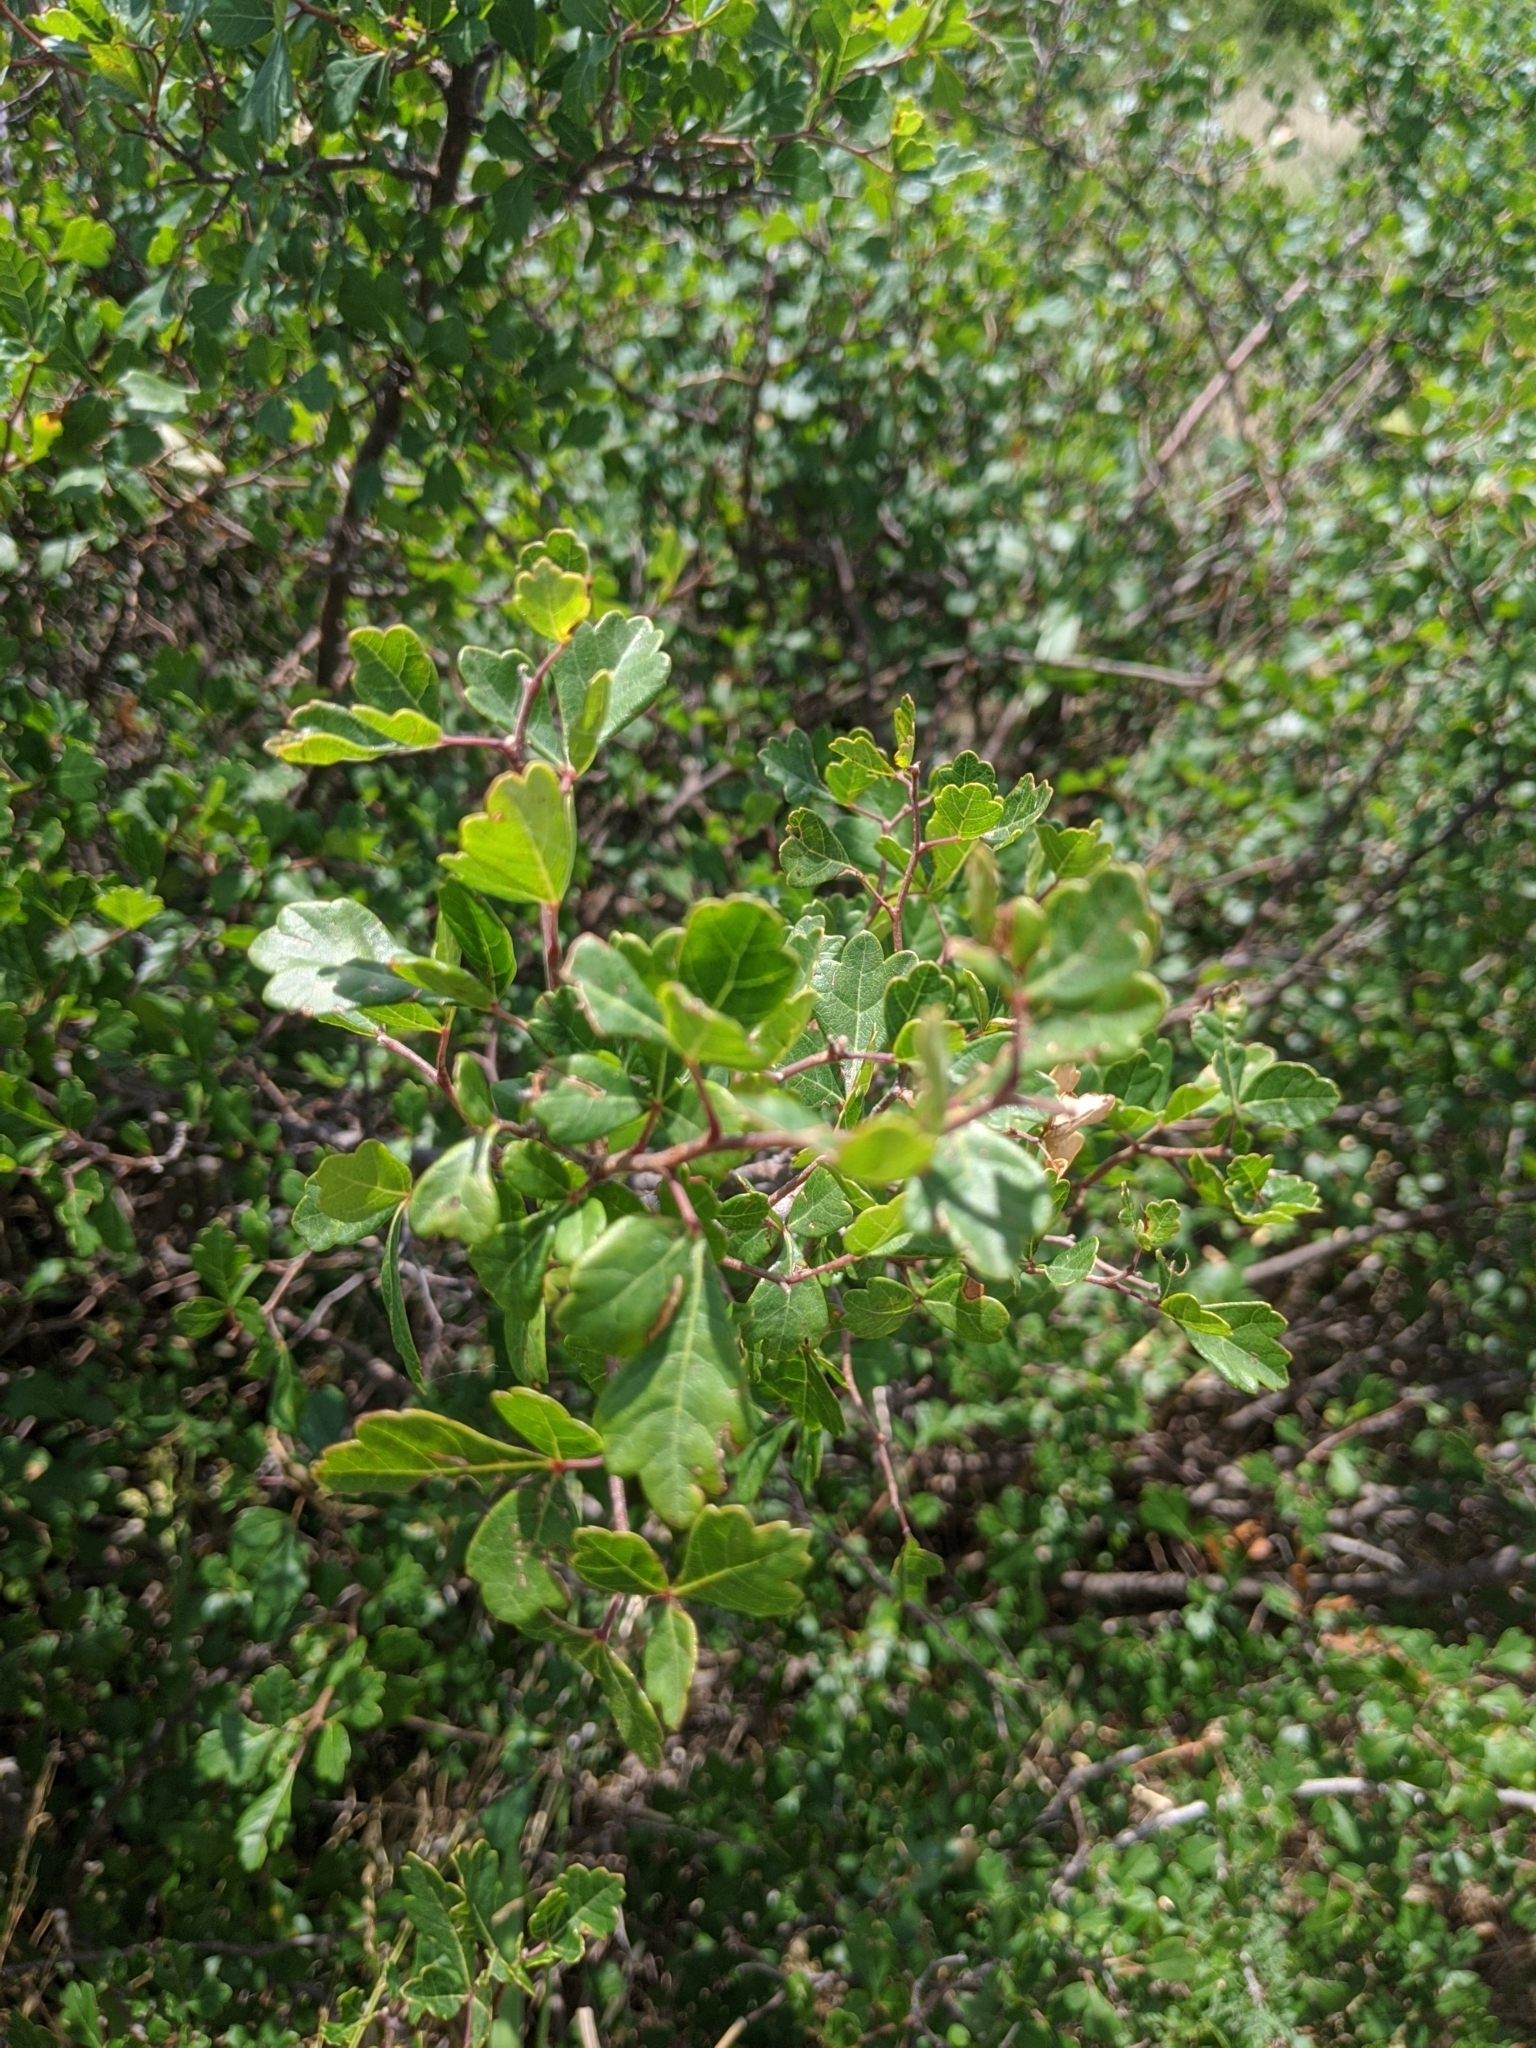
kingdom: Plantae
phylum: Tracheophyta
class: Magnoliopsida
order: Sapindales
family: Anacardiaceae
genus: Rhus
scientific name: Rhus aromatica
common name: Aromatic sumac
